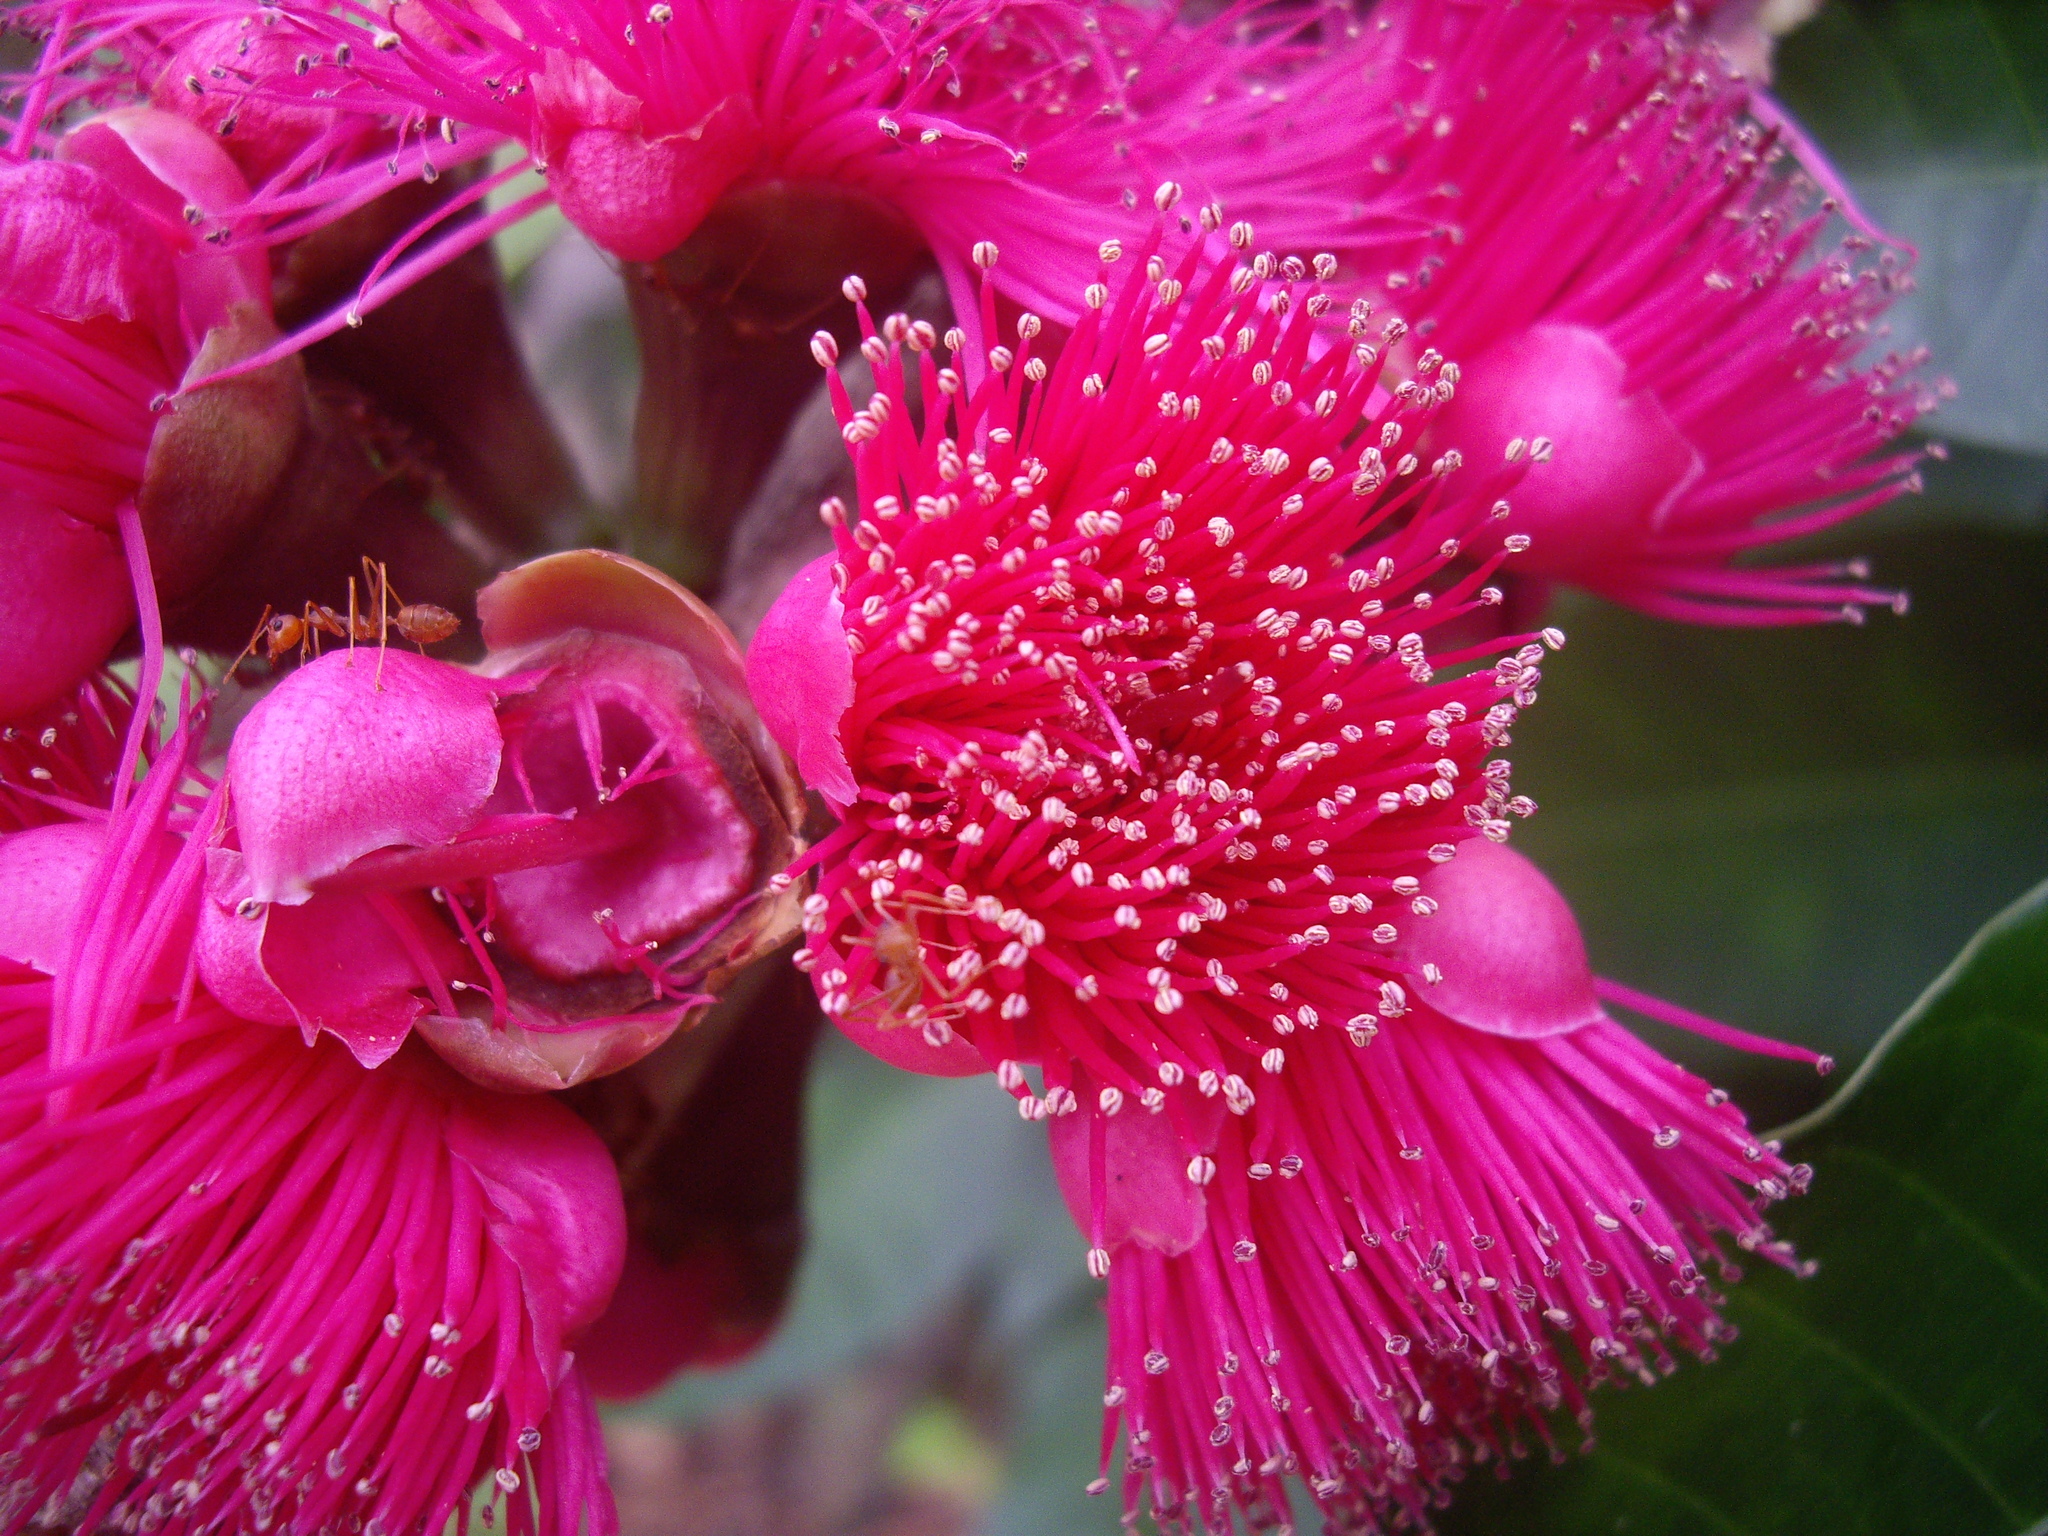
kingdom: Plantae
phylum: Tracheophyta
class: Magnoliopsida
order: Myrtales
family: Myrtaceae
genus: Syzygium
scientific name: Syzygium malaccense
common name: Malaysian apple
